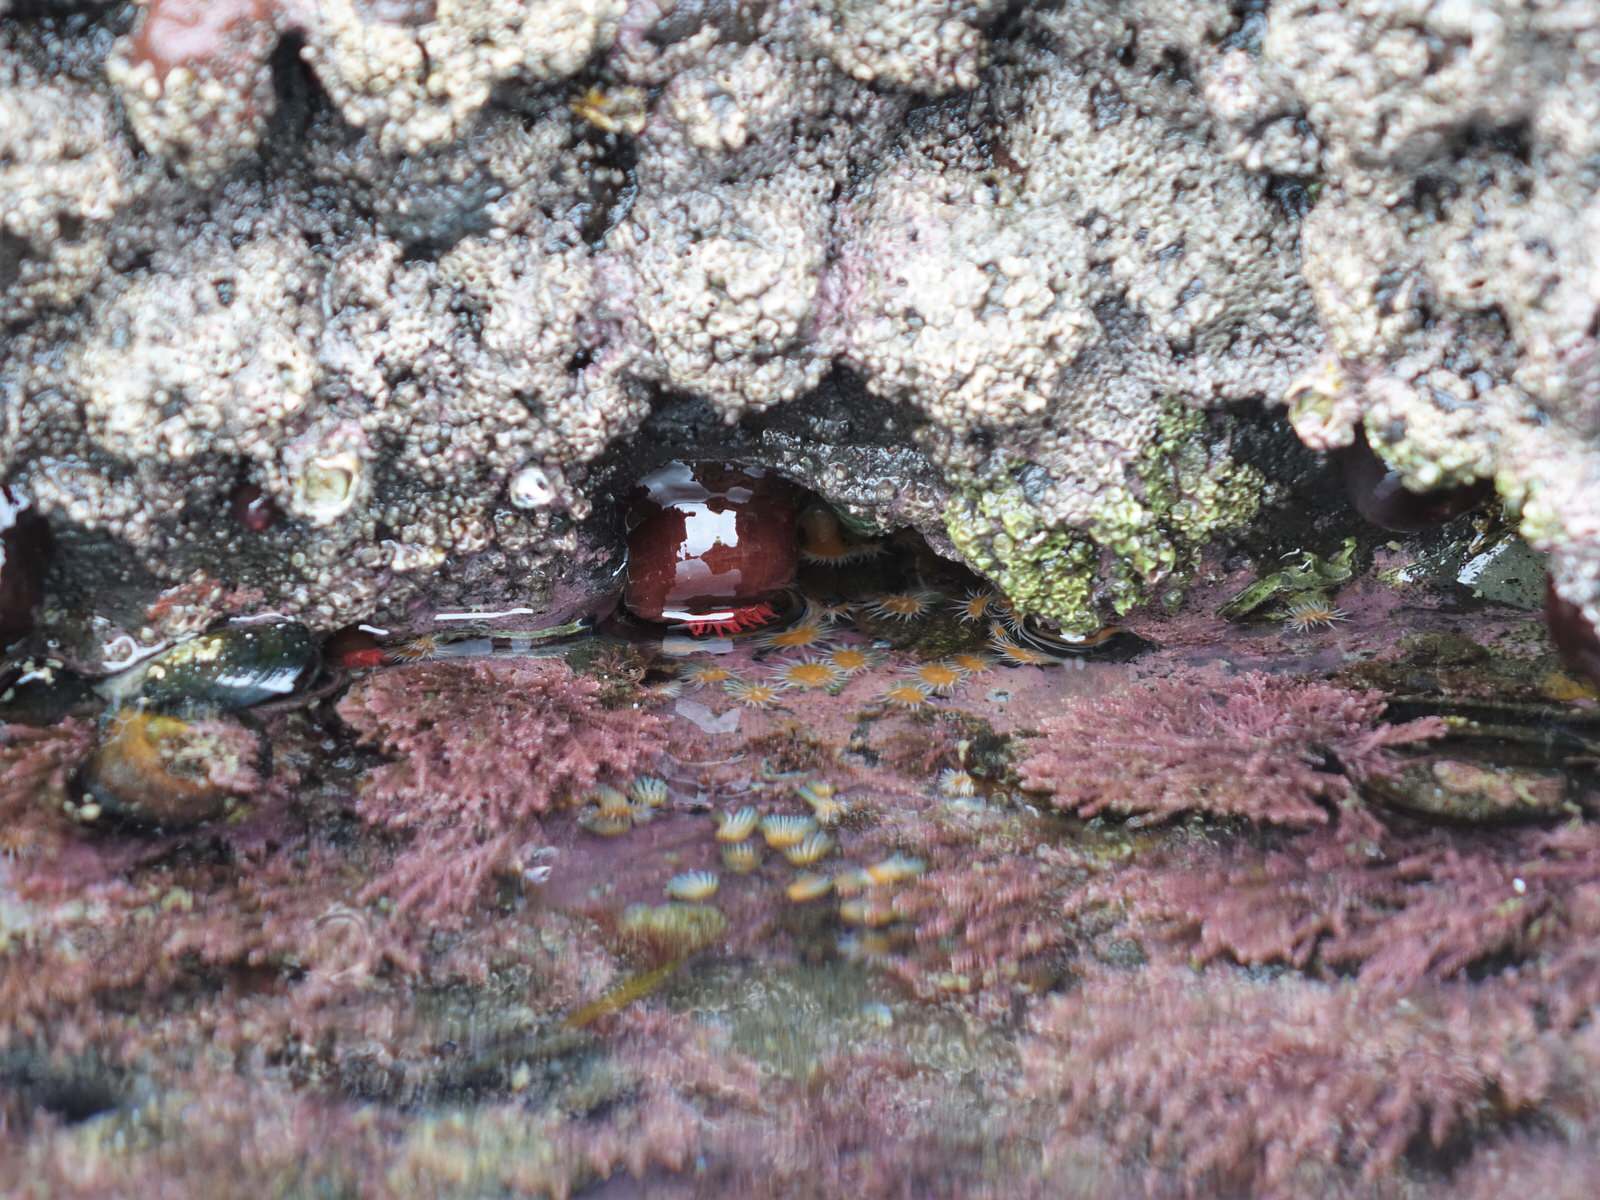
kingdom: Animalia
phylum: Cnidaria
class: Anthozoa
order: Actiniaria
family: Actiniidae
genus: Actinia
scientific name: Actinia tenebrosa
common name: Waratah anemone
